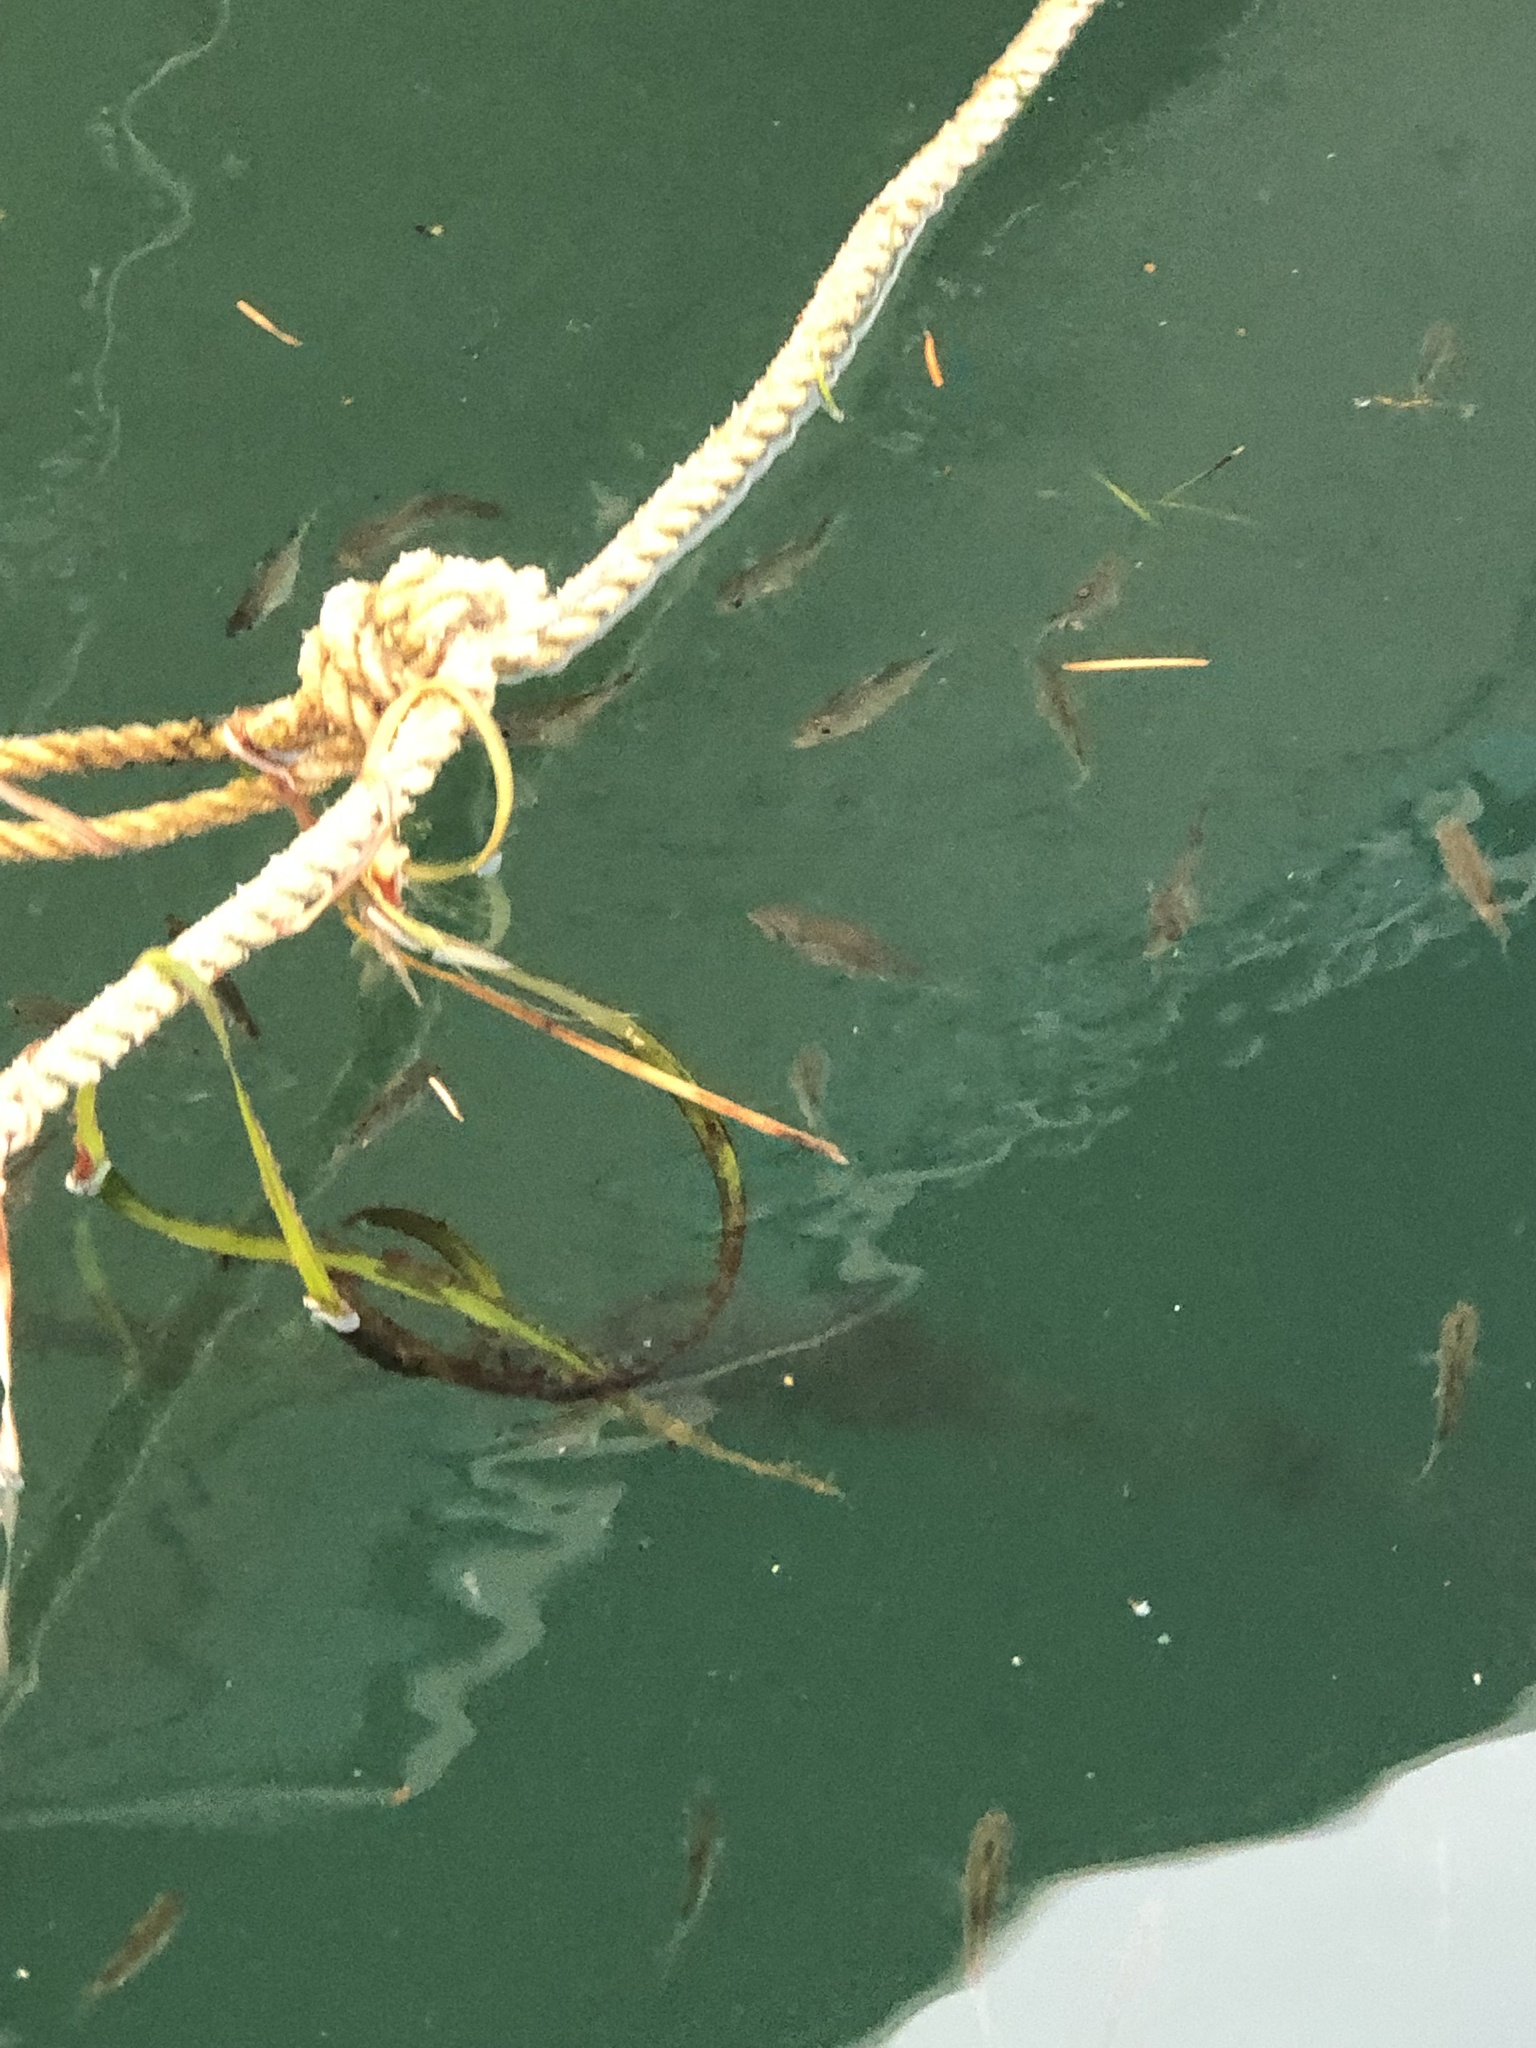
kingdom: Animalia
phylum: Chordata
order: Perciformes
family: Embiotocidae
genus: Cymatogaster
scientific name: Cymatogaster aggregata
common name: Shiner perch
